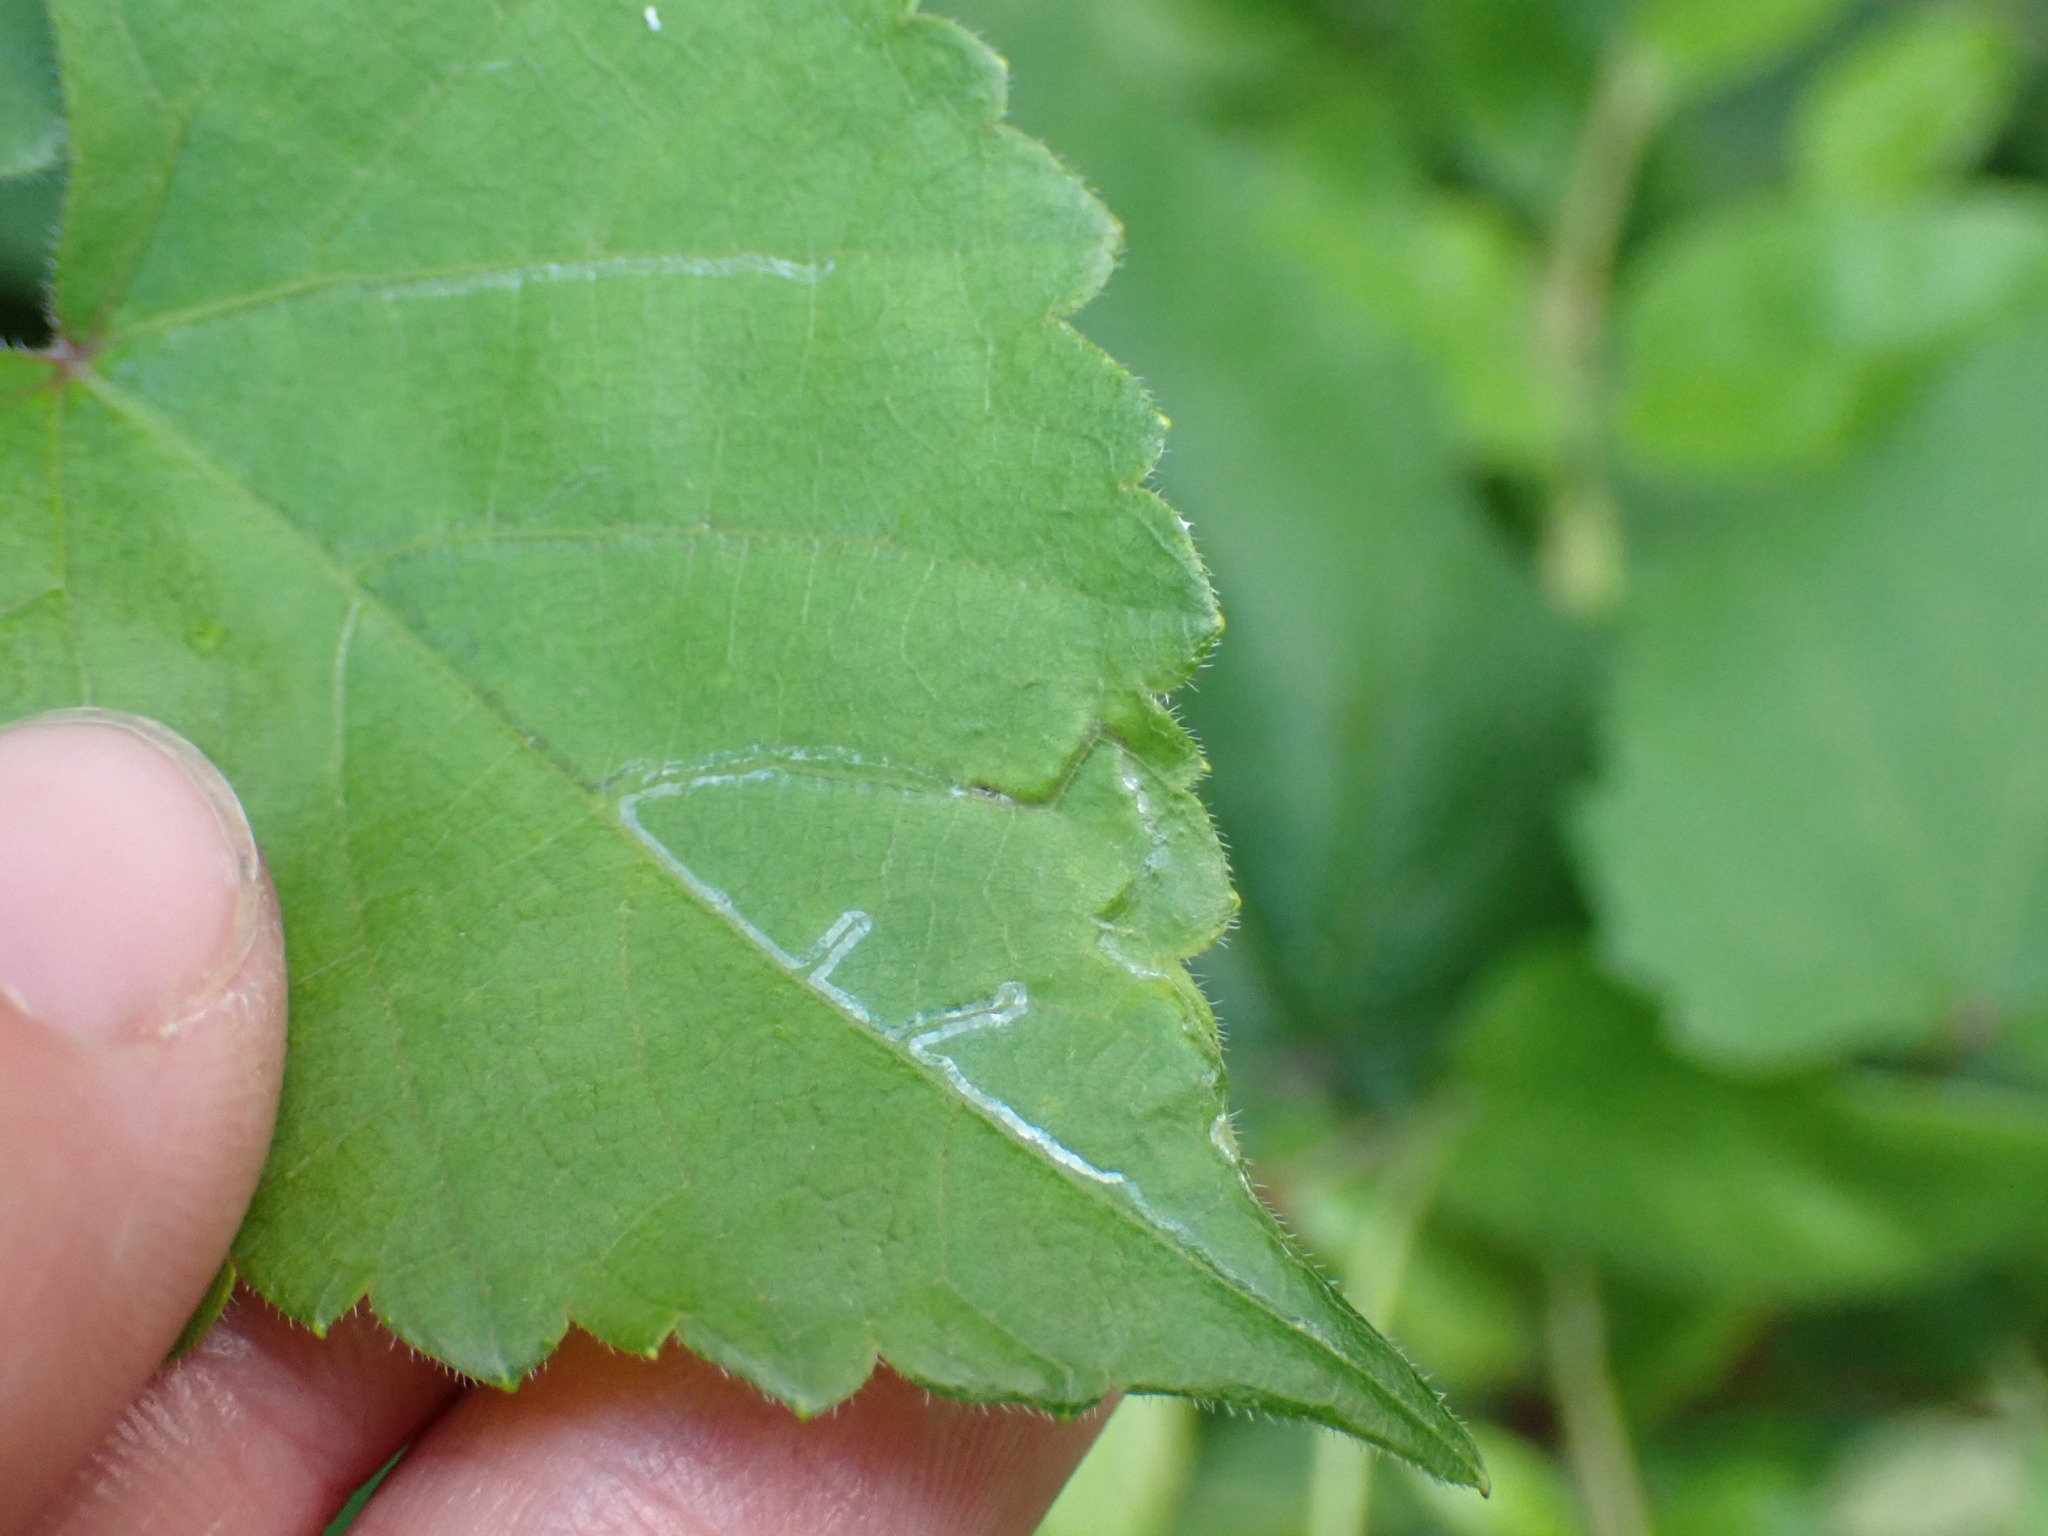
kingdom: Animalia
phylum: Arthropoda
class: Insecta
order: Lepidoptera
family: Gracillariidae
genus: Phyllocnistis
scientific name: Phyllocnistis vitegenella
